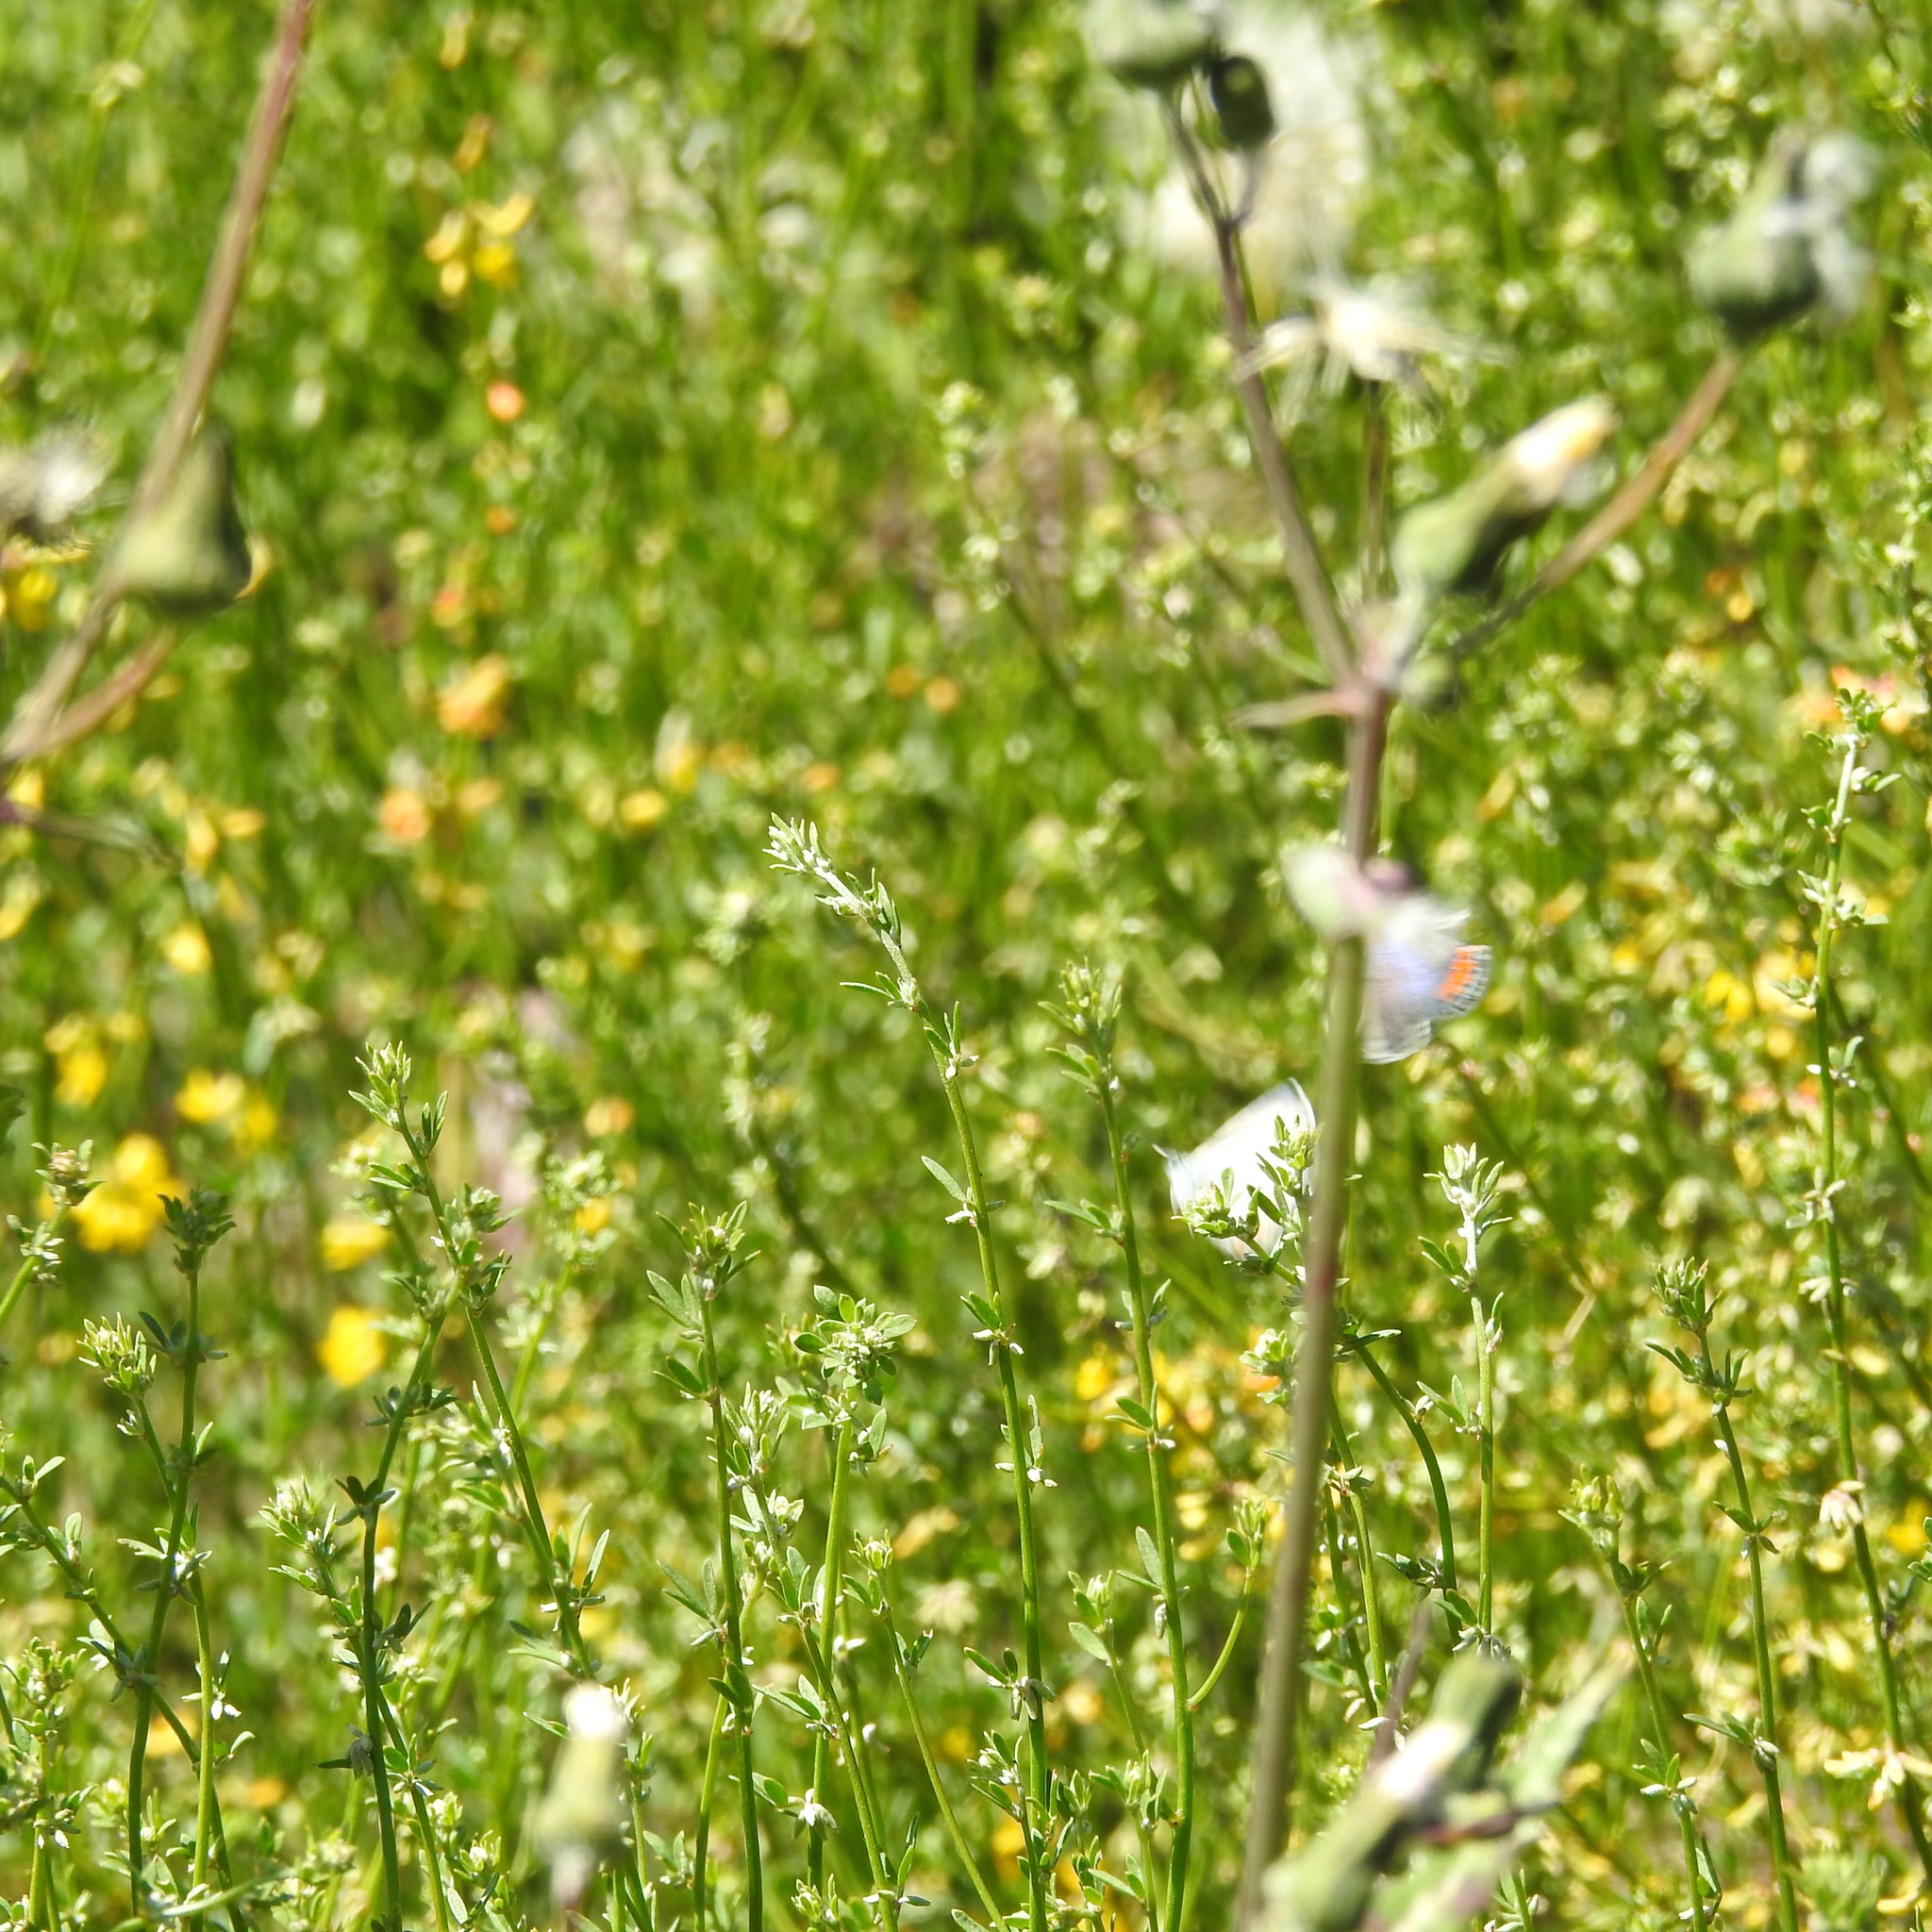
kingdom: Animalia
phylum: Arthropoda
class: Insecta
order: Lepidoptera
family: Lycaenidae
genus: Icaricia
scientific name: Icaricia acmon
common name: Acmon blue
